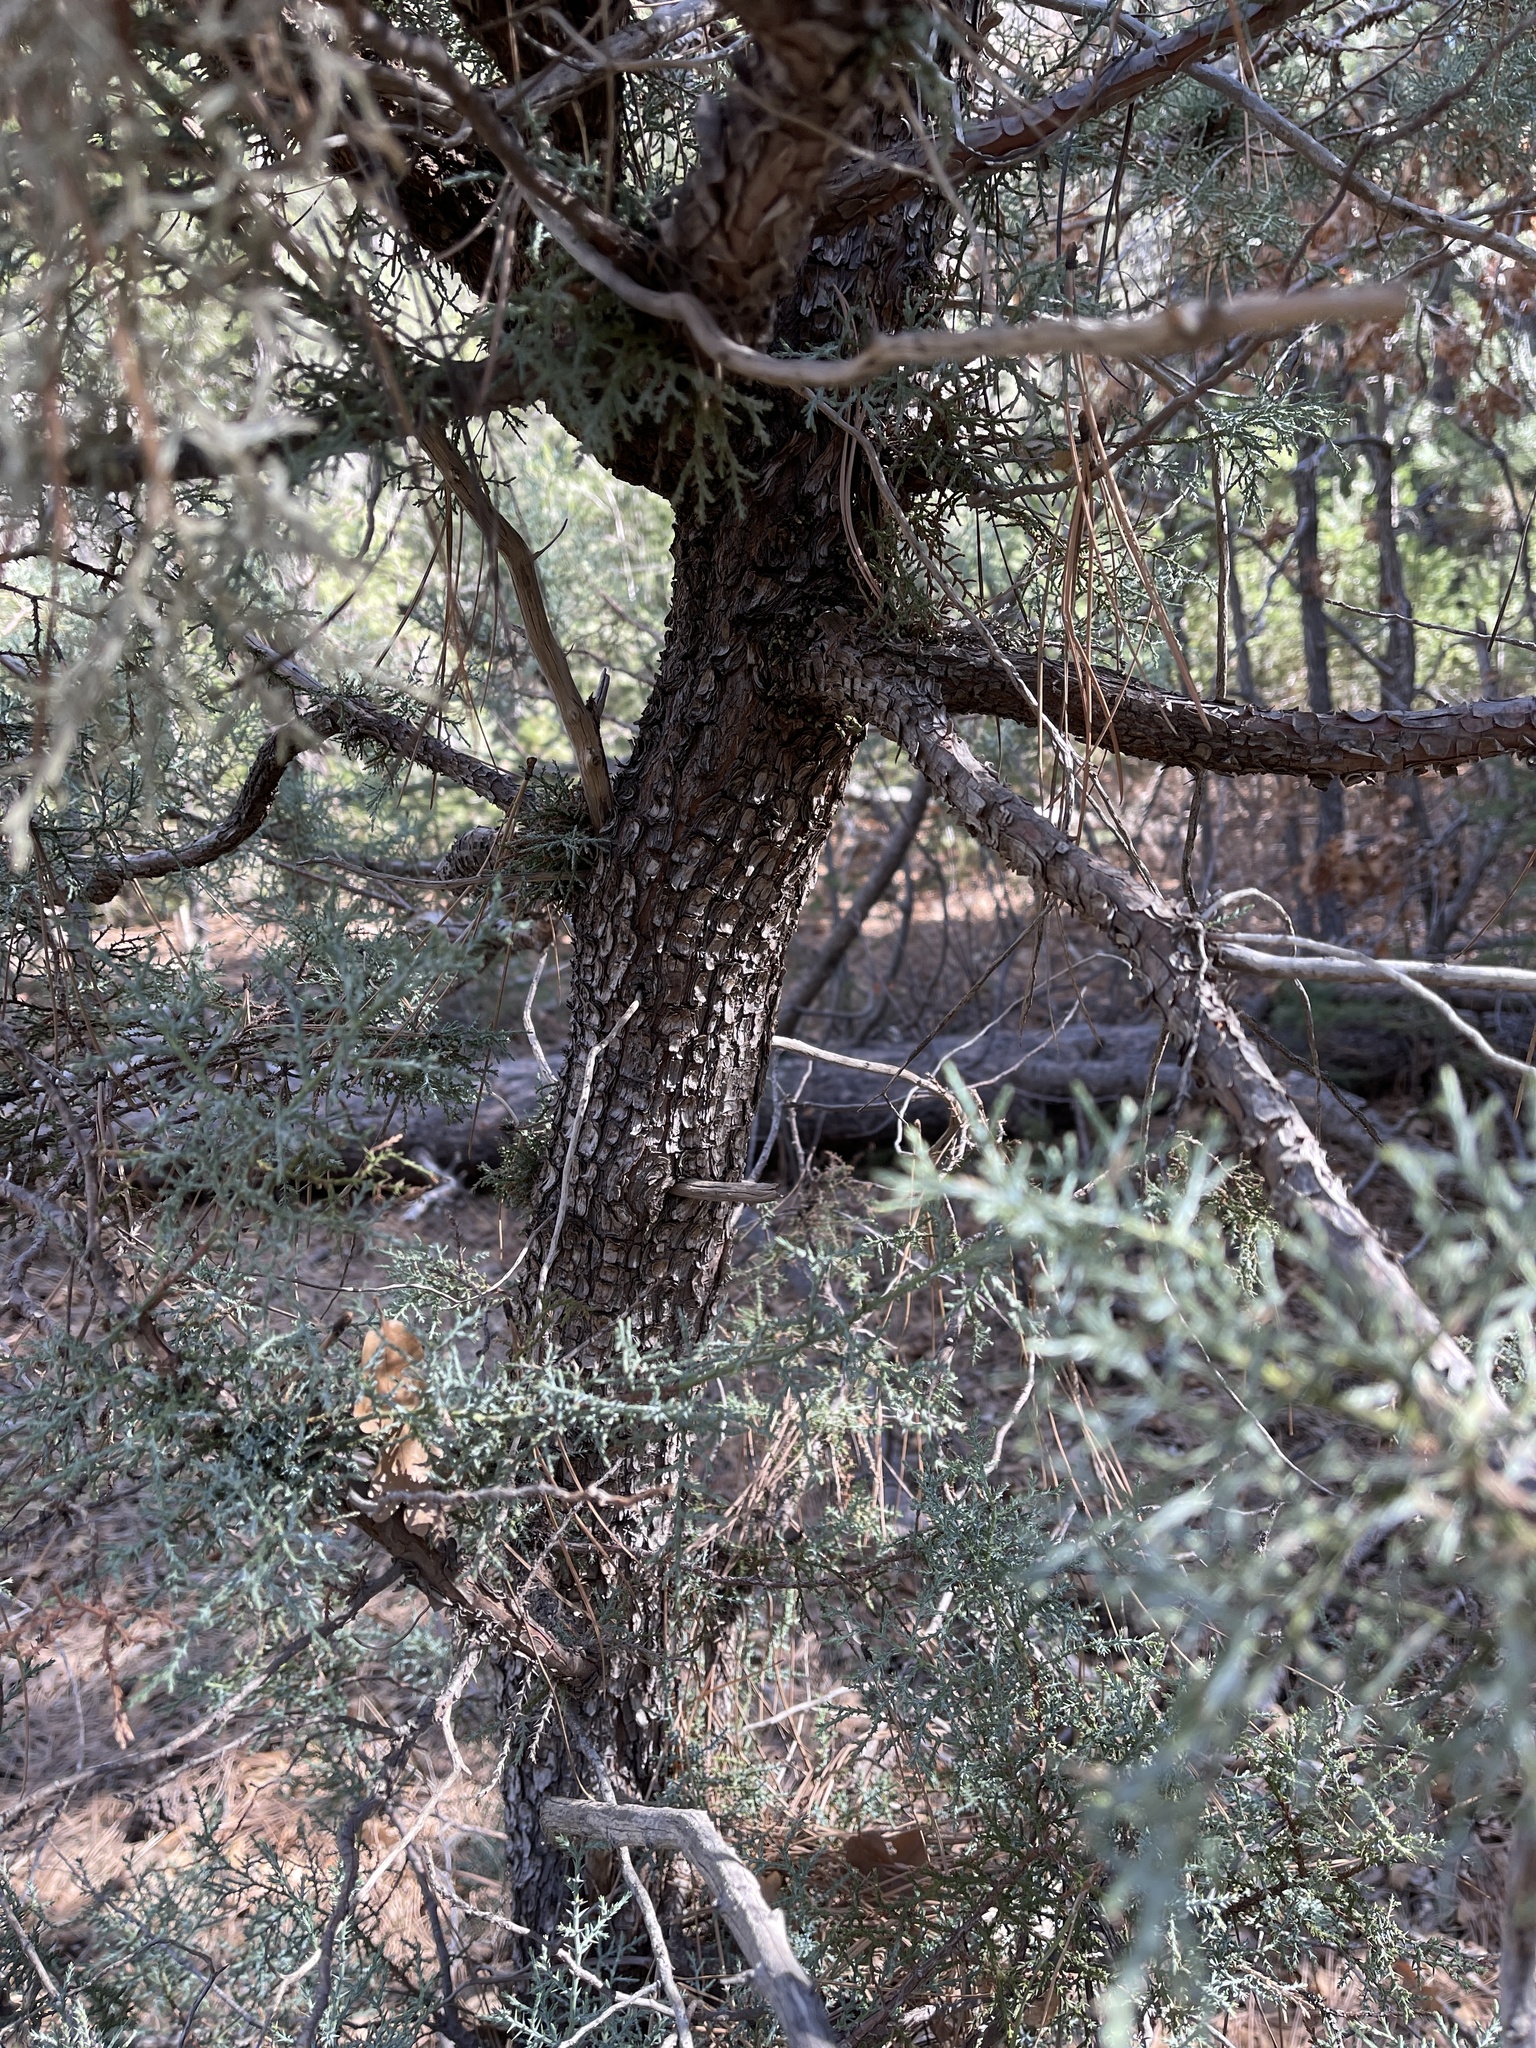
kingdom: Plantae
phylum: Tracheophyta
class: Pinopsida
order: Pinales
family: Cupressaceae
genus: Juniperus
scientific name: Juniperus deppeana
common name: Alligator juniper
